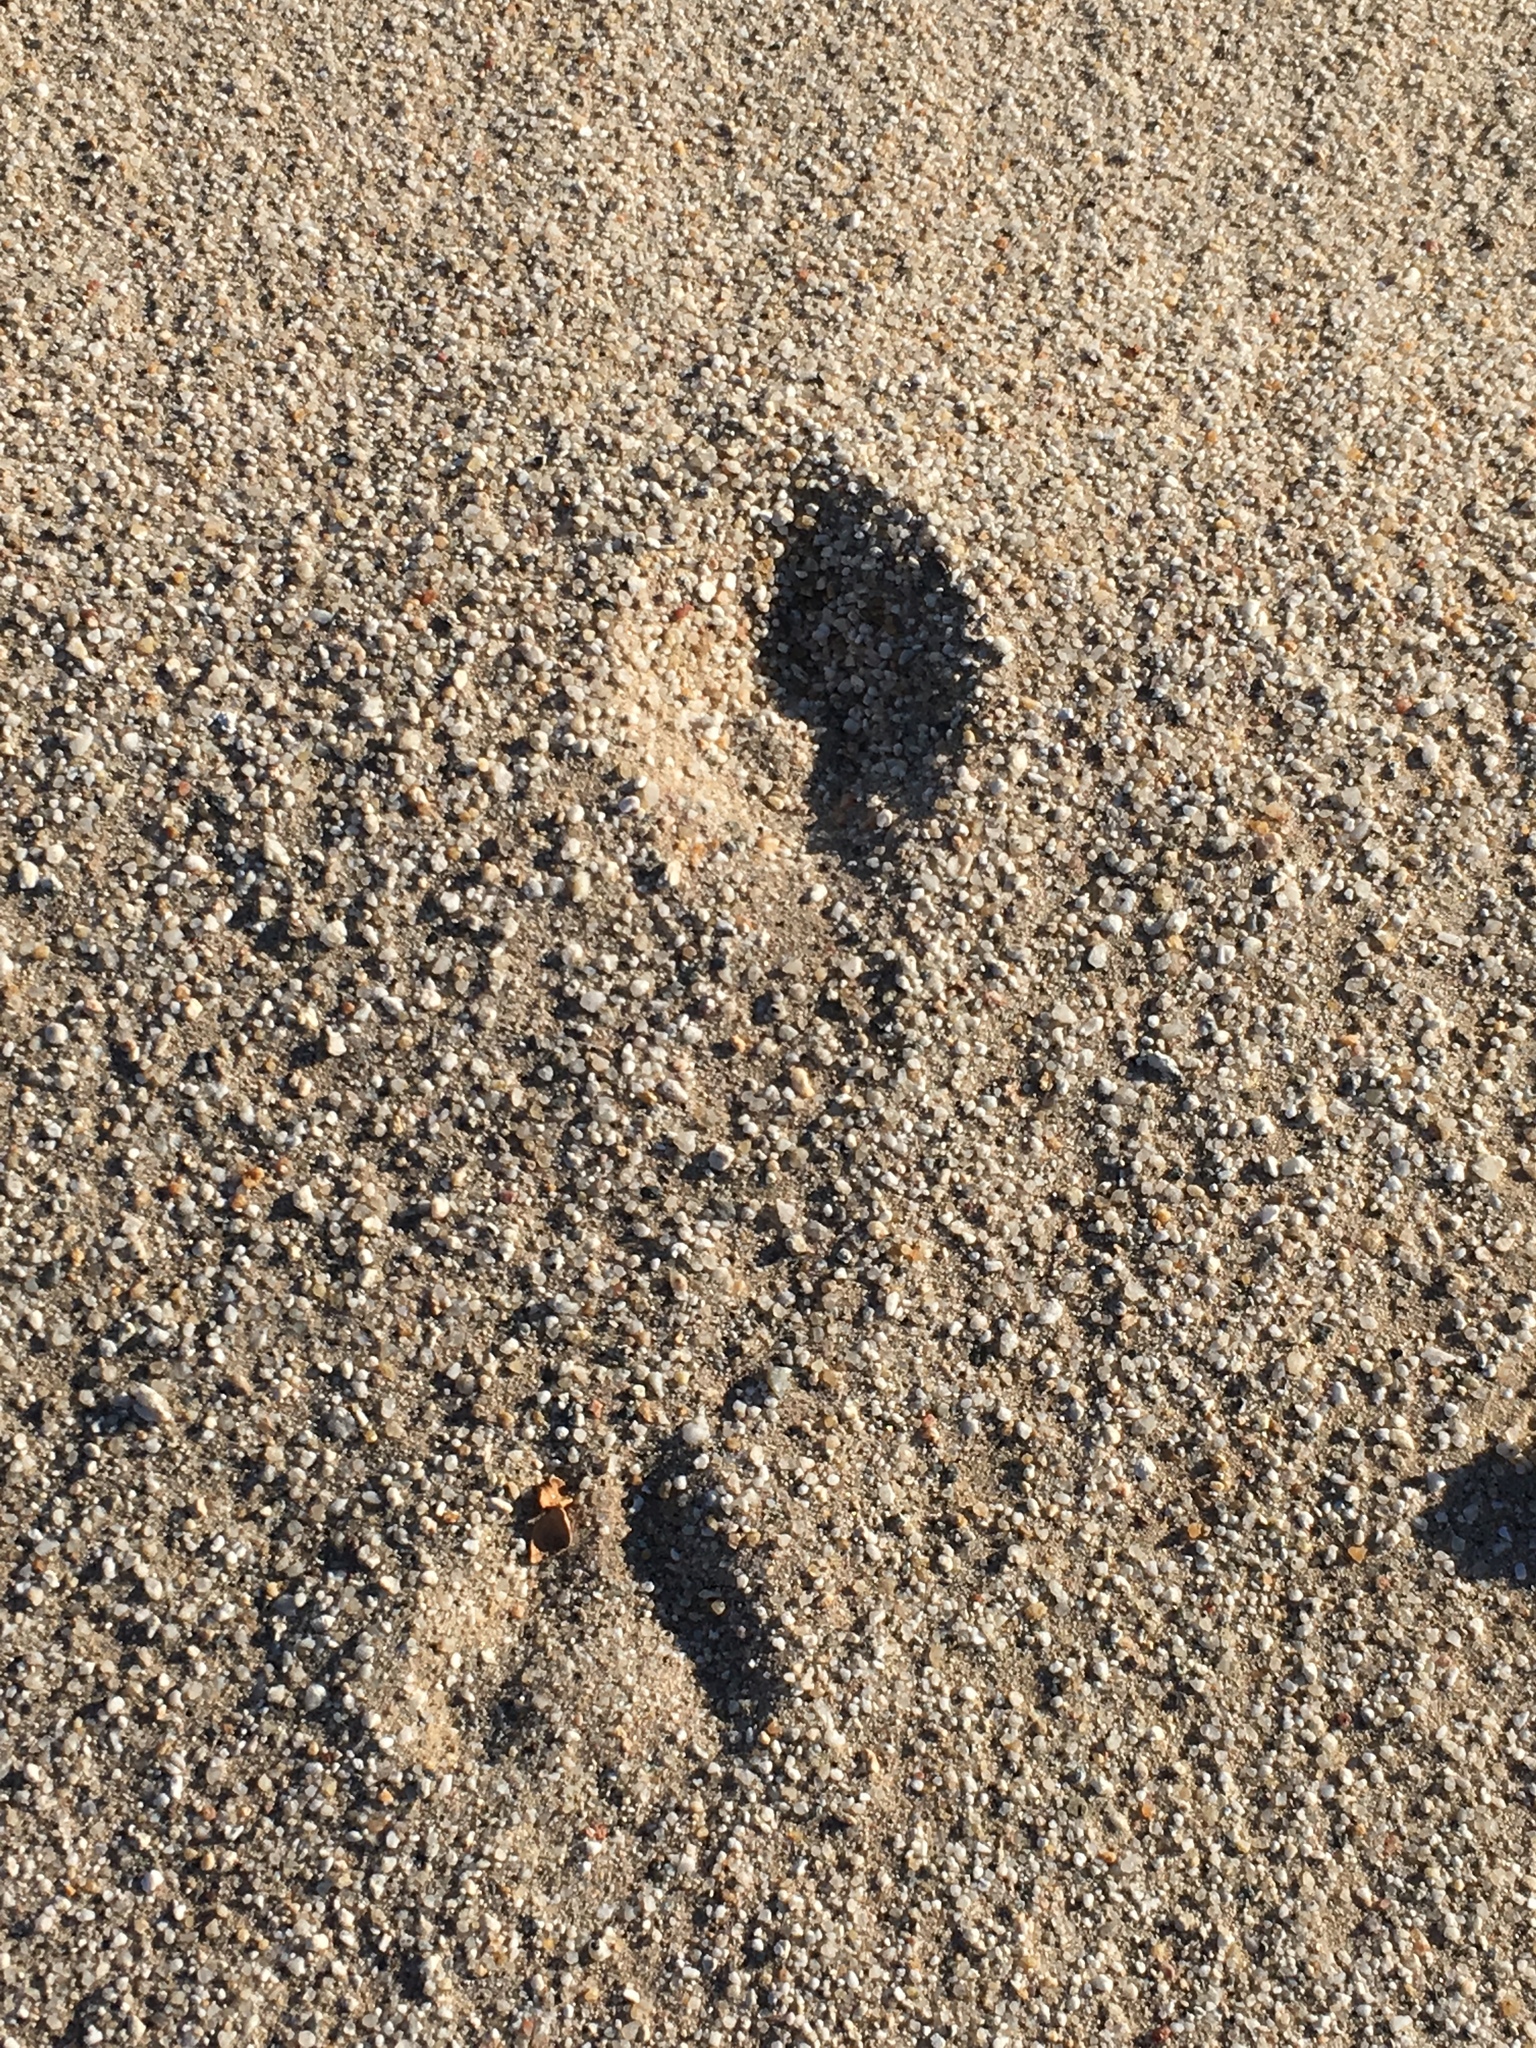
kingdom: Animalia
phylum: Chordata
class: Mammalia
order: Carnivora
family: Canidae
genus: Vulpes
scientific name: Vulpes macrotis
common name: Kit fox
